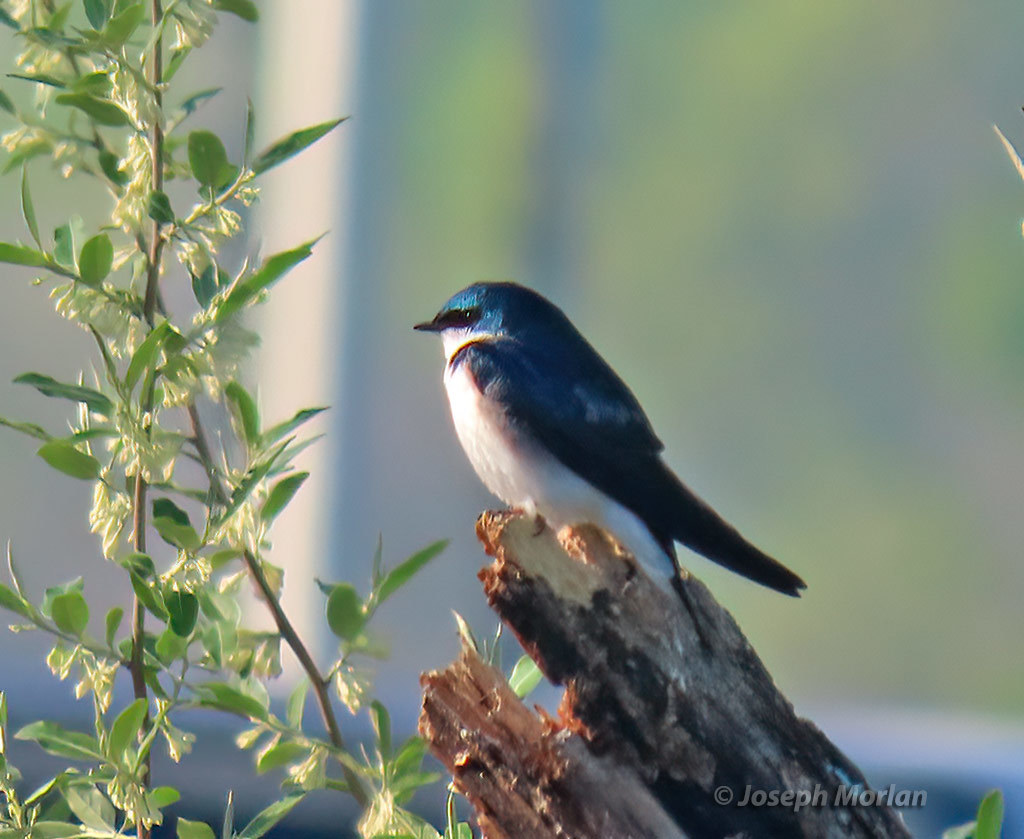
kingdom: Animalia
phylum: Chordata
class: Aves
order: Passeriformes
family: Hirundinidae
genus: Tachycineta
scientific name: Tachycineta bicolor
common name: Tree swallow
